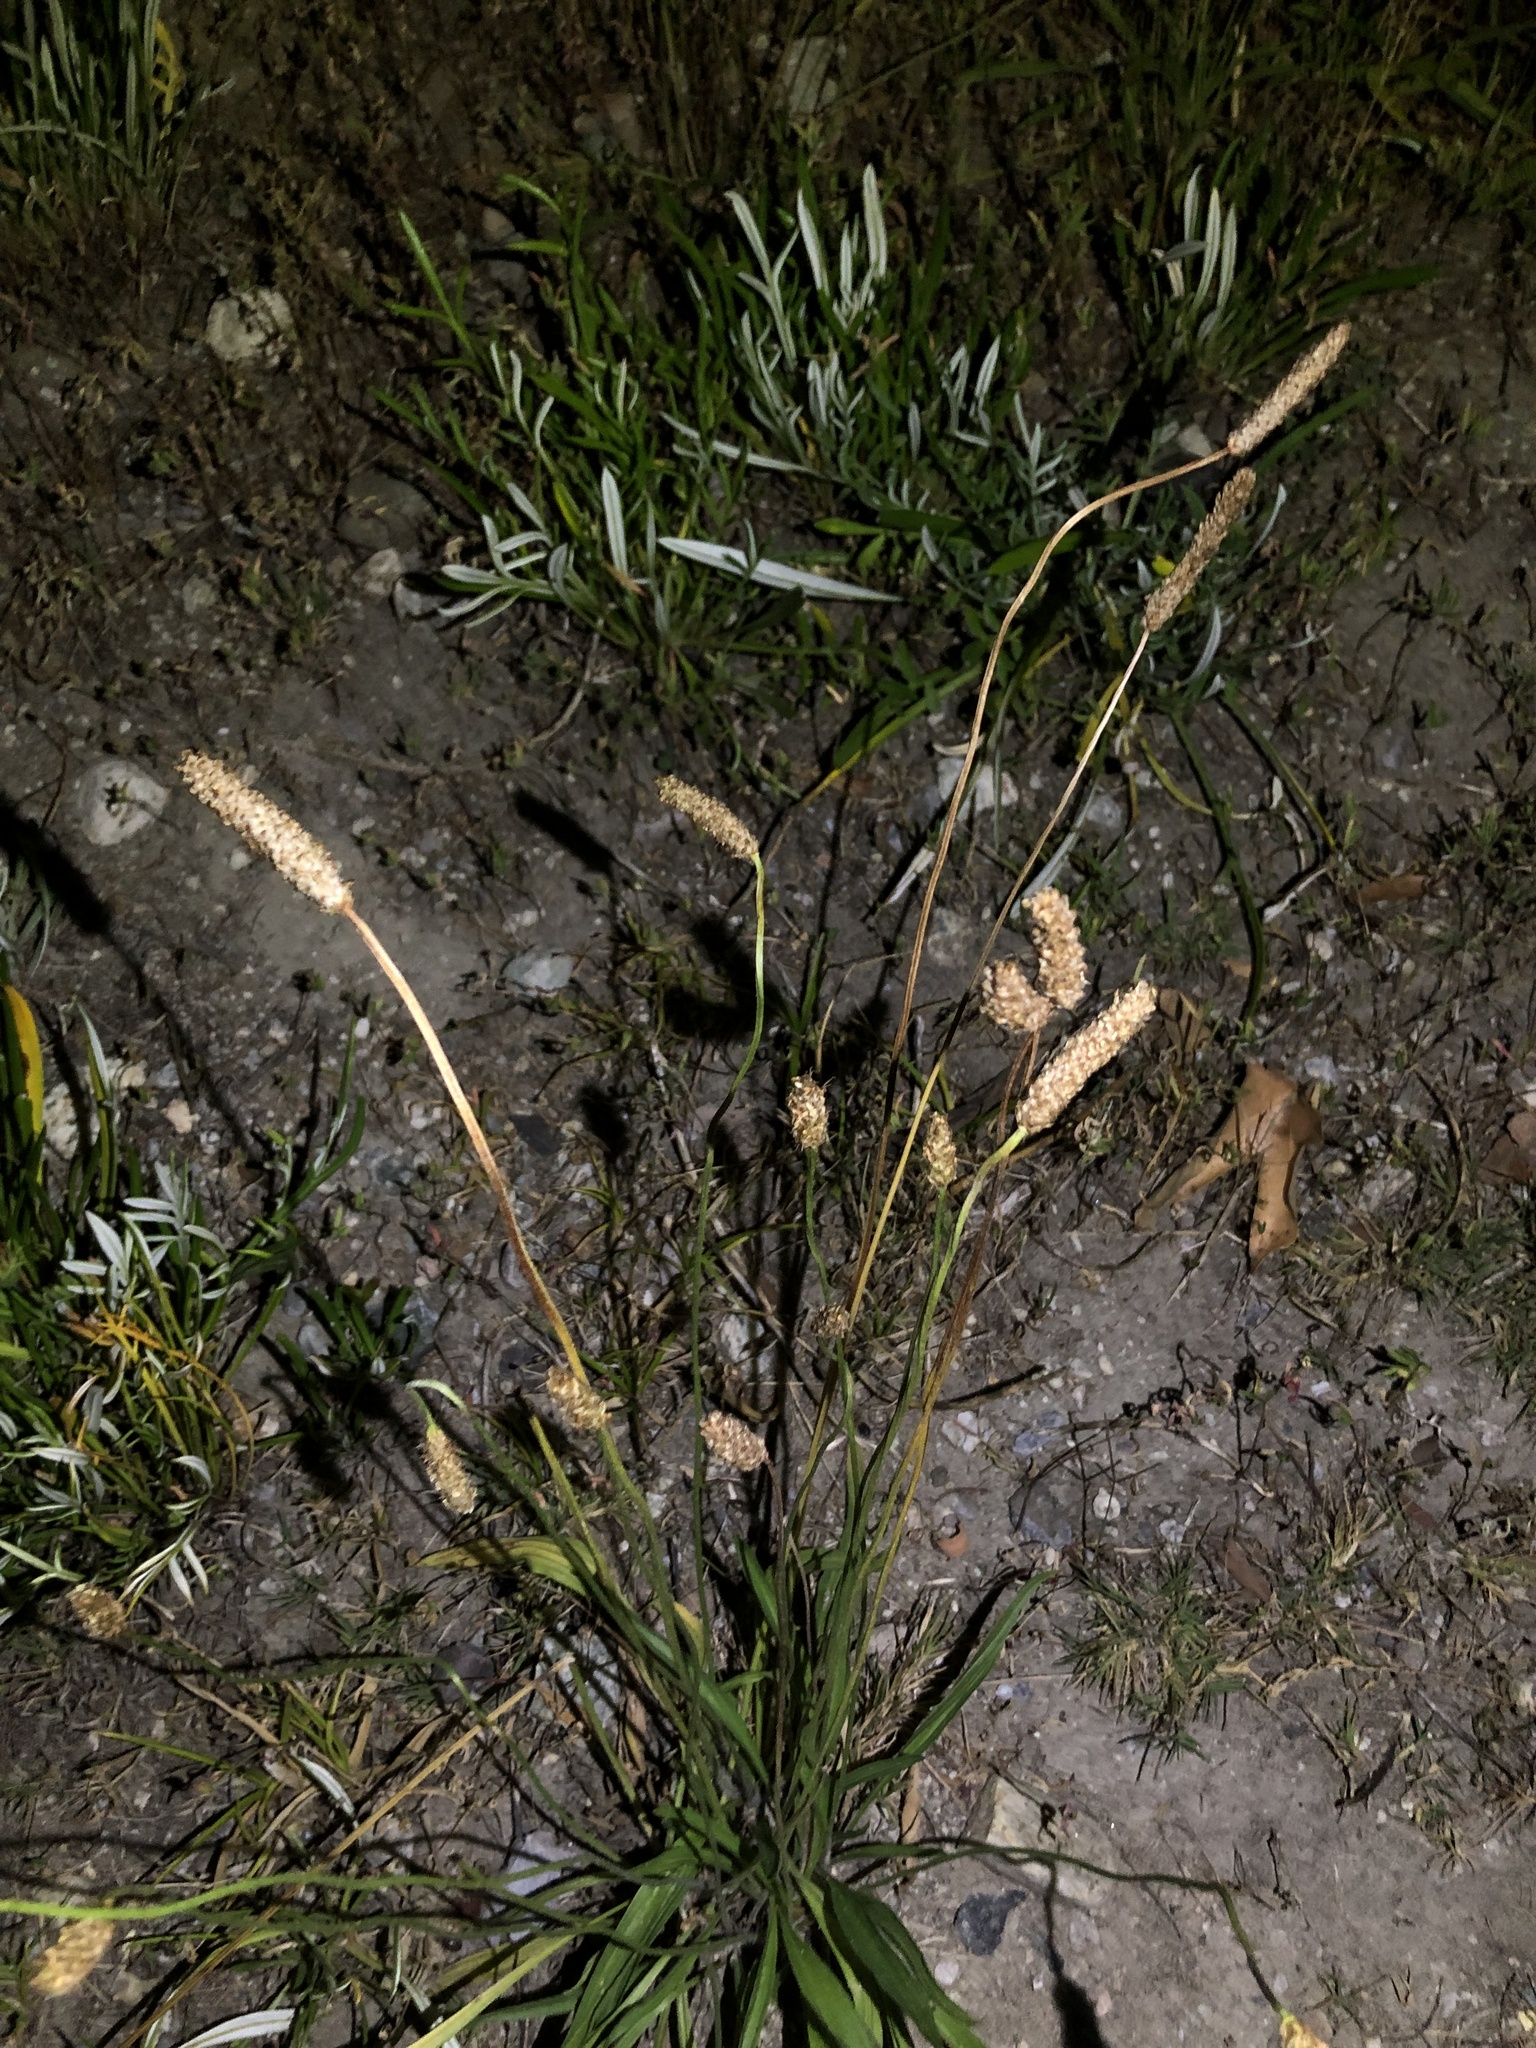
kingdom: Plantae
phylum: Tracheophyta
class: Magnoliopsida
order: Lamiales
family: Plantaginaceae
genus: Plantago
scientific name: Plantago lanceolata
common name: Ribwort plantain
